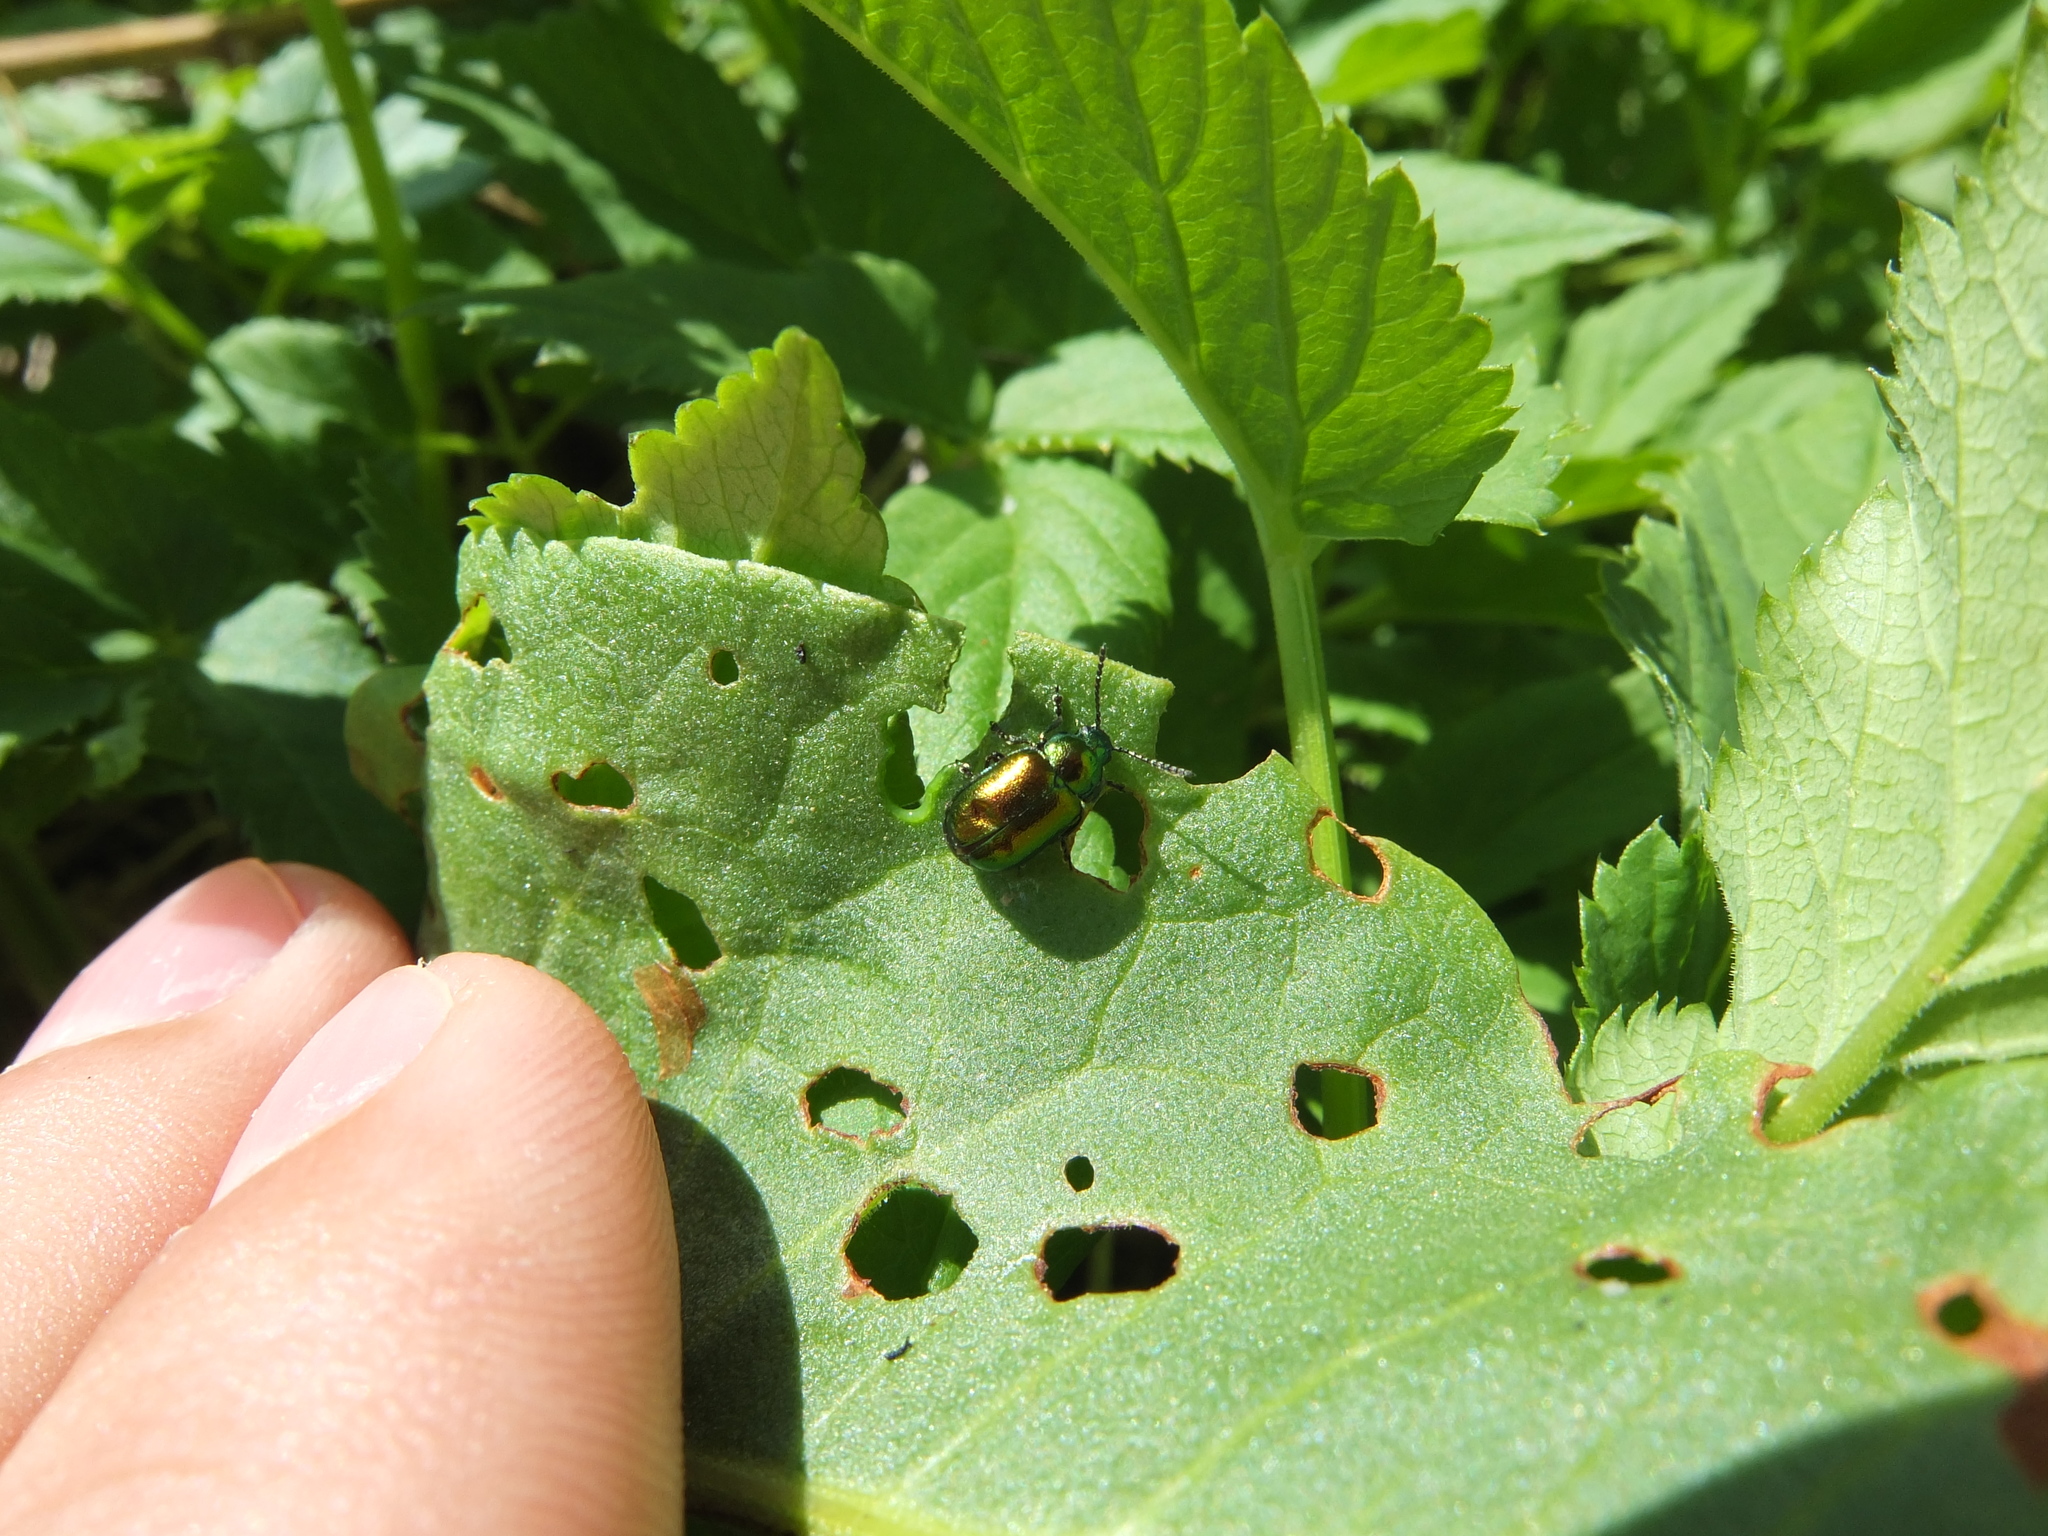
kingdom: Animalia
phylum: Arthropoda
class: Insecta
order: Coleoptera
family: Chrysomelidae
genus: Gastrophysa
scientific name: Gastrophysa viridula
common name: Green dock beetle
